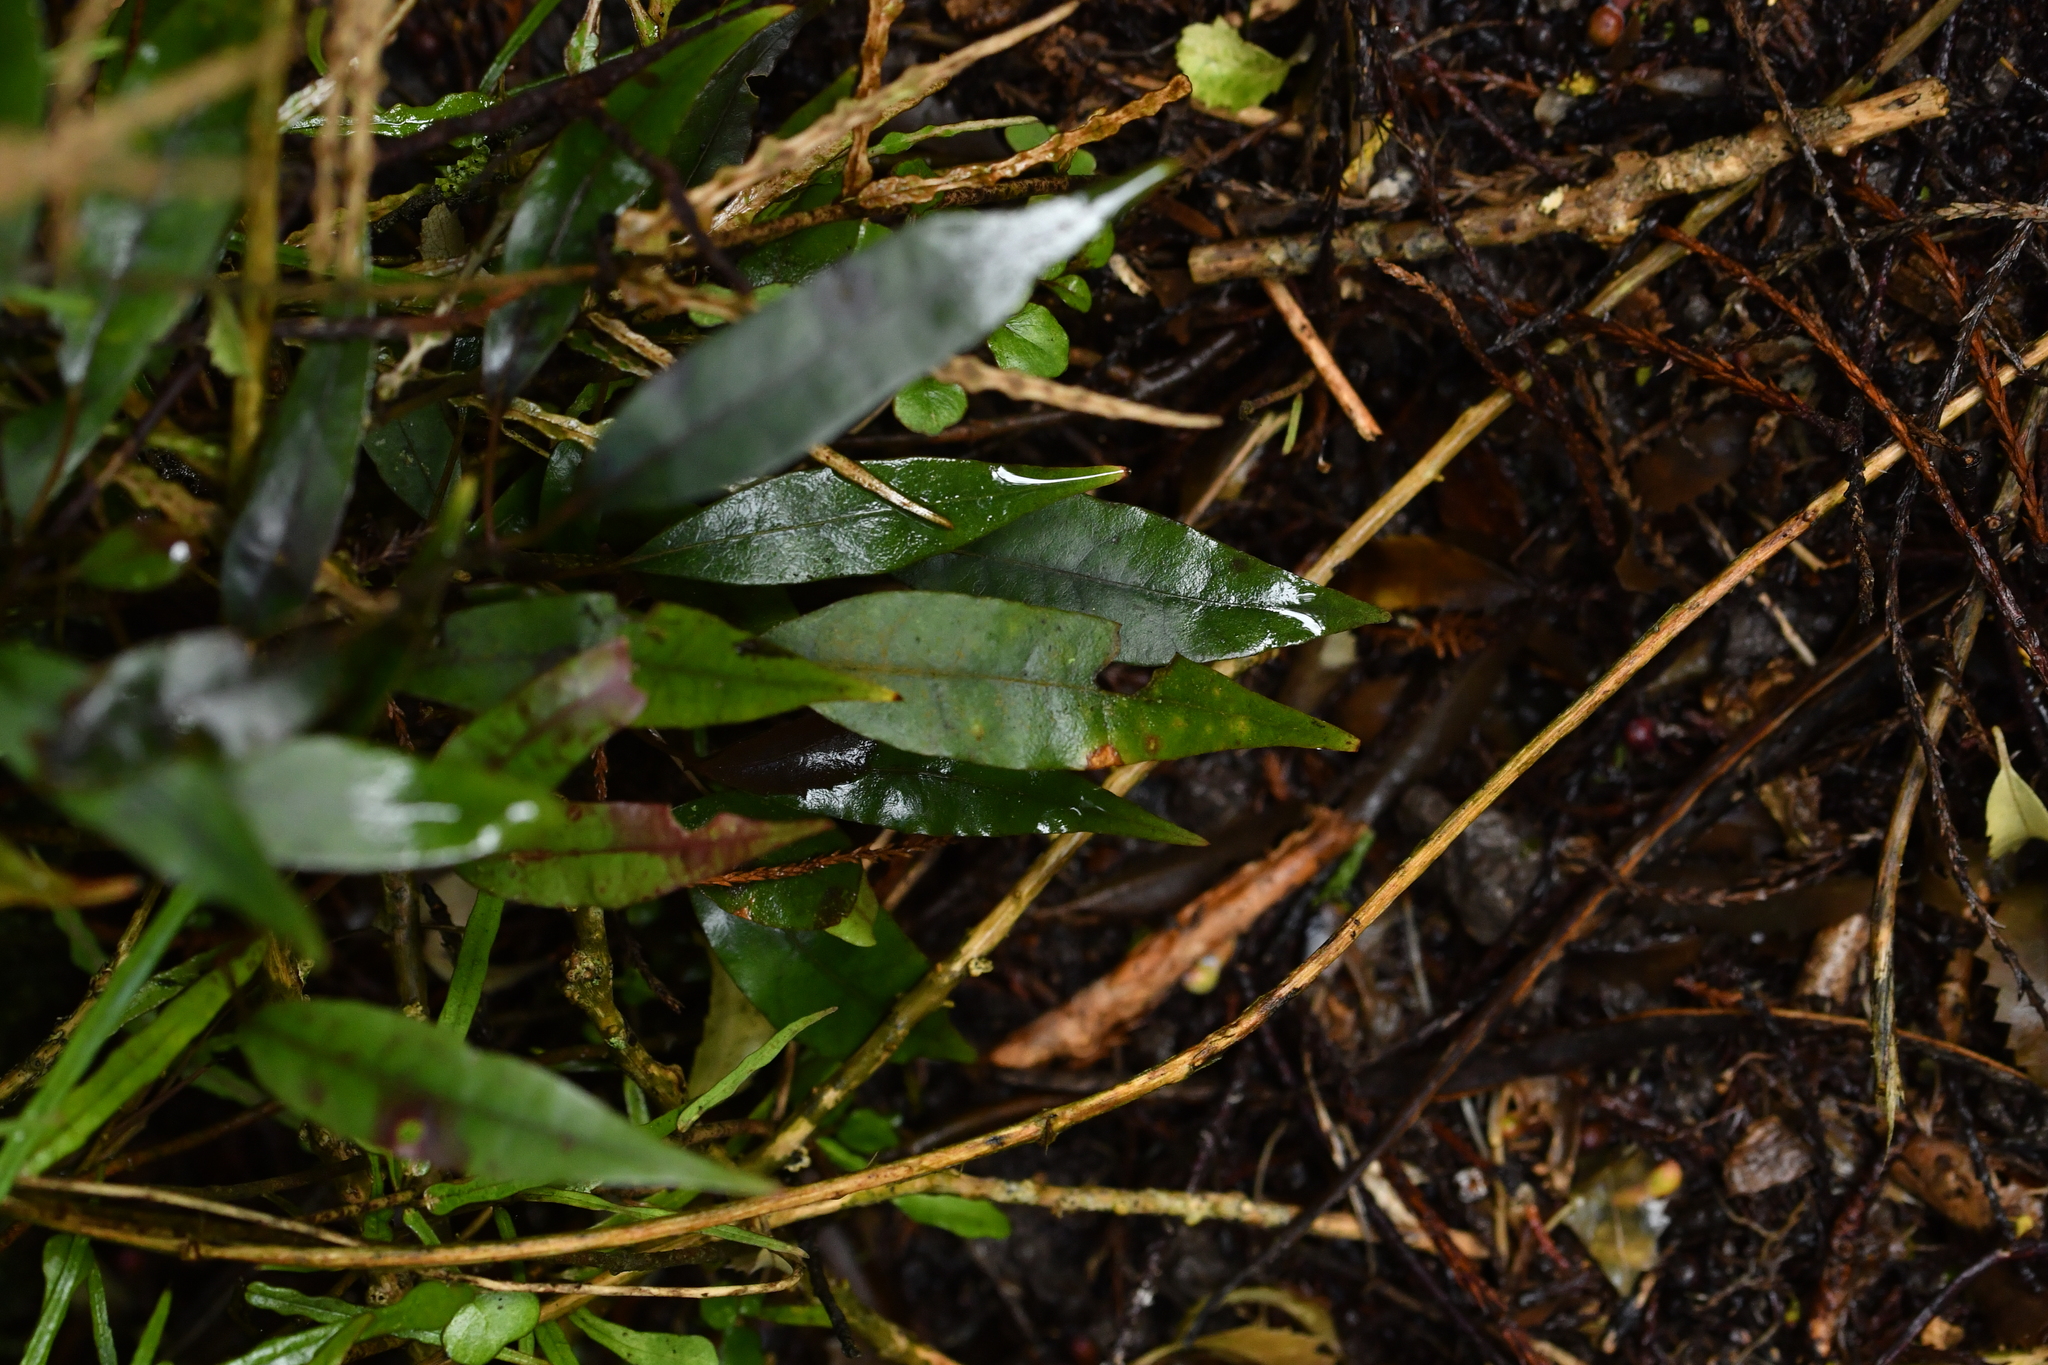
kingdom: Plantae
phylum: Tracheophyta
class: Magnoliopsida
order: Malpighiales
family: Passifloraceae
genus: Passiflora
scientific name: Passiflora tetrandra
